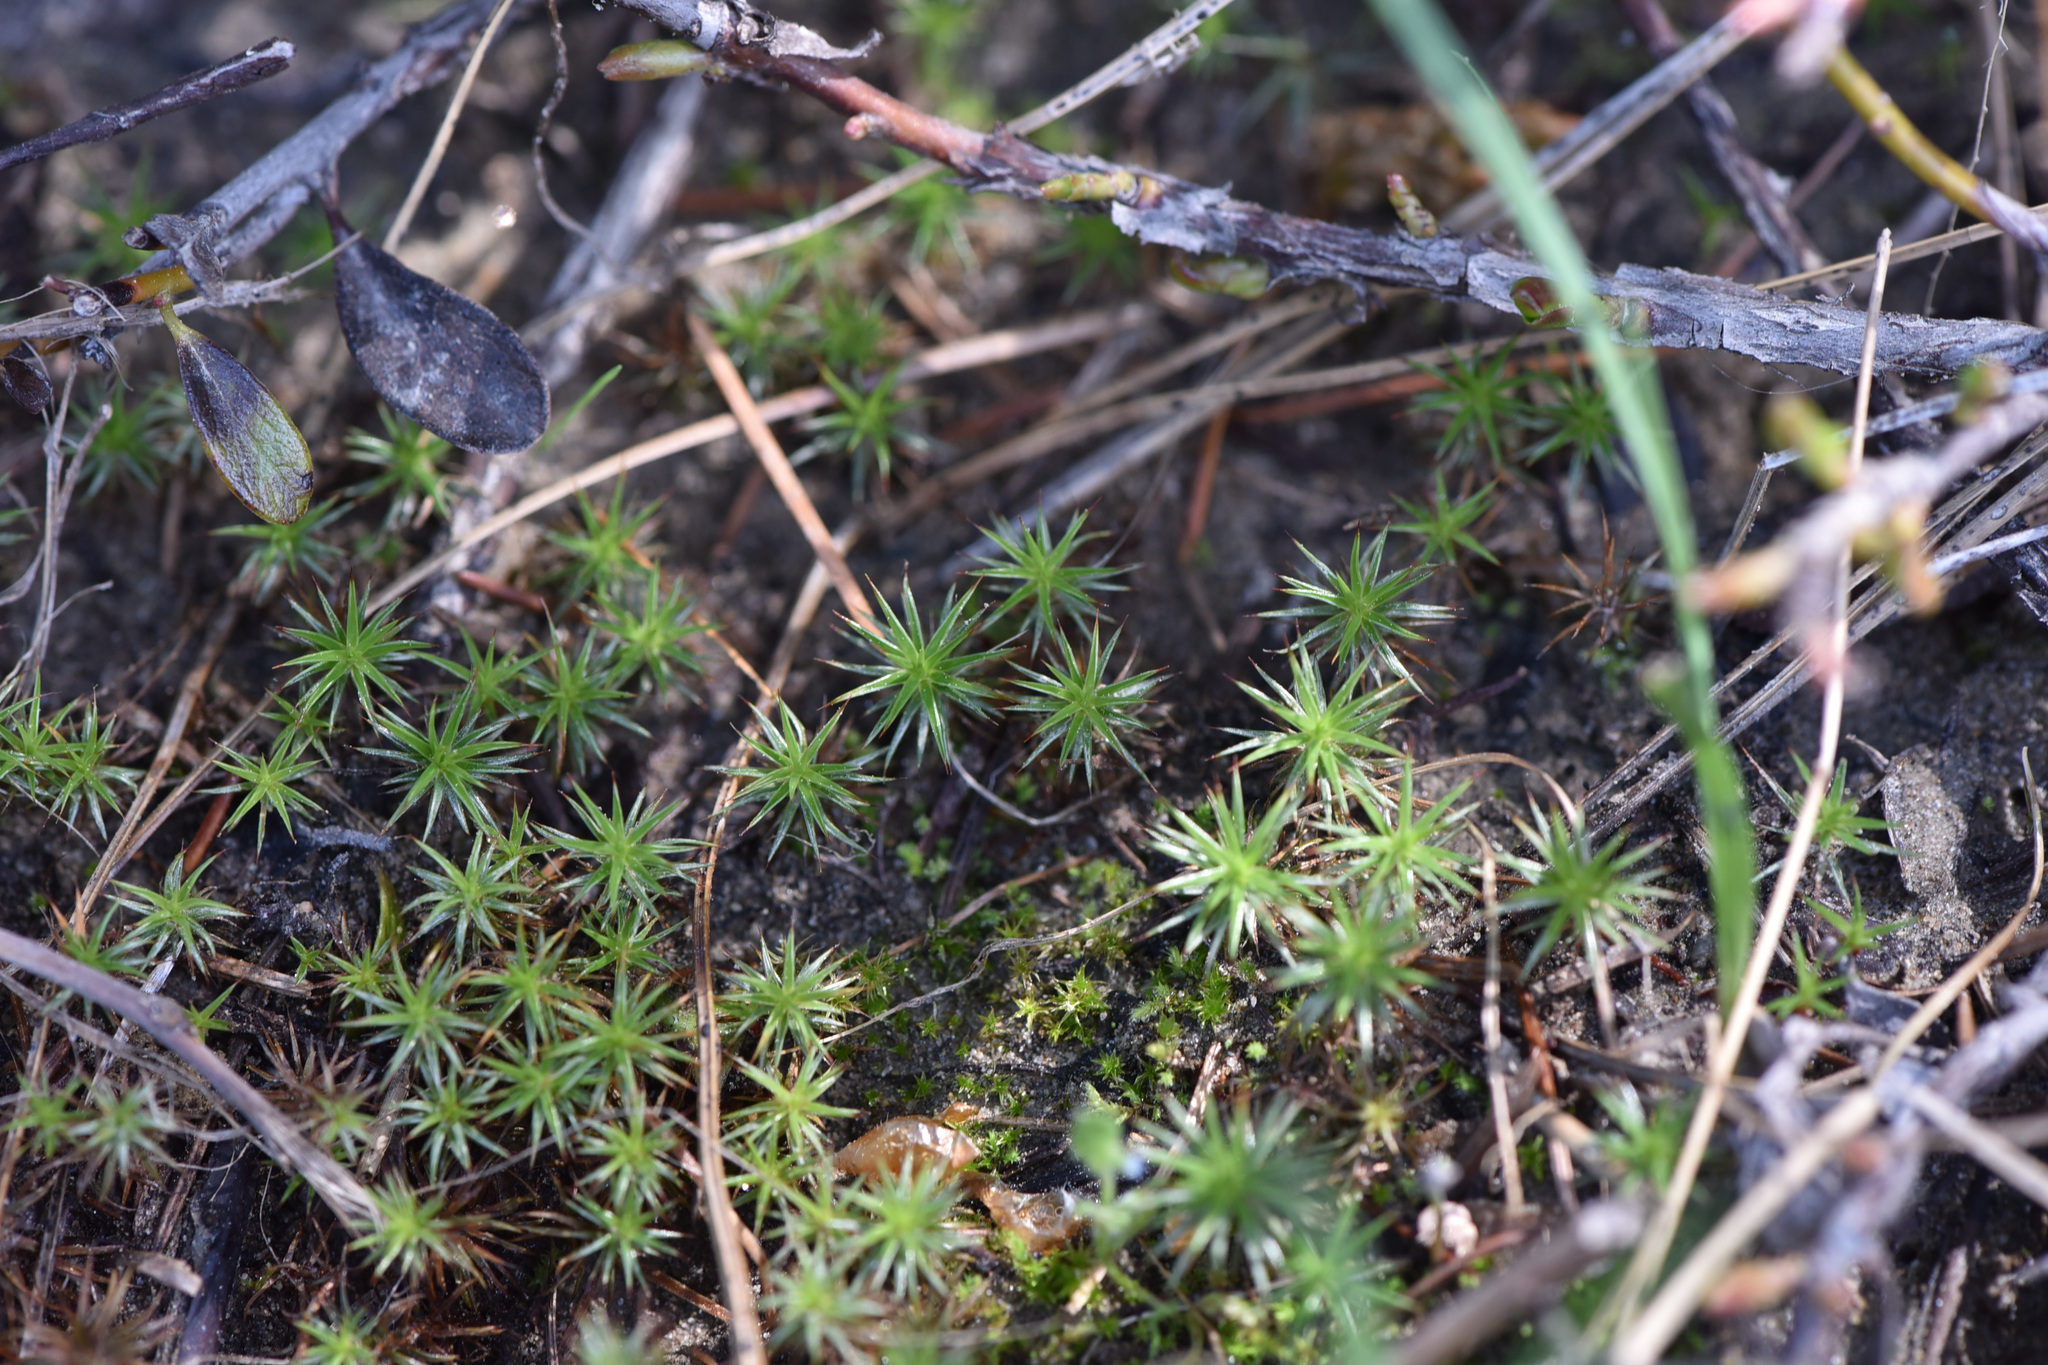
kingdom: Plantae
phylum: Bryophyta
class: Polytrichopsida
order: Polytrichales
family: Polytrichaceae
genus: Polytrichum
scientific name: Polytrichum juniperinum
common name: Juniper haircap moss
